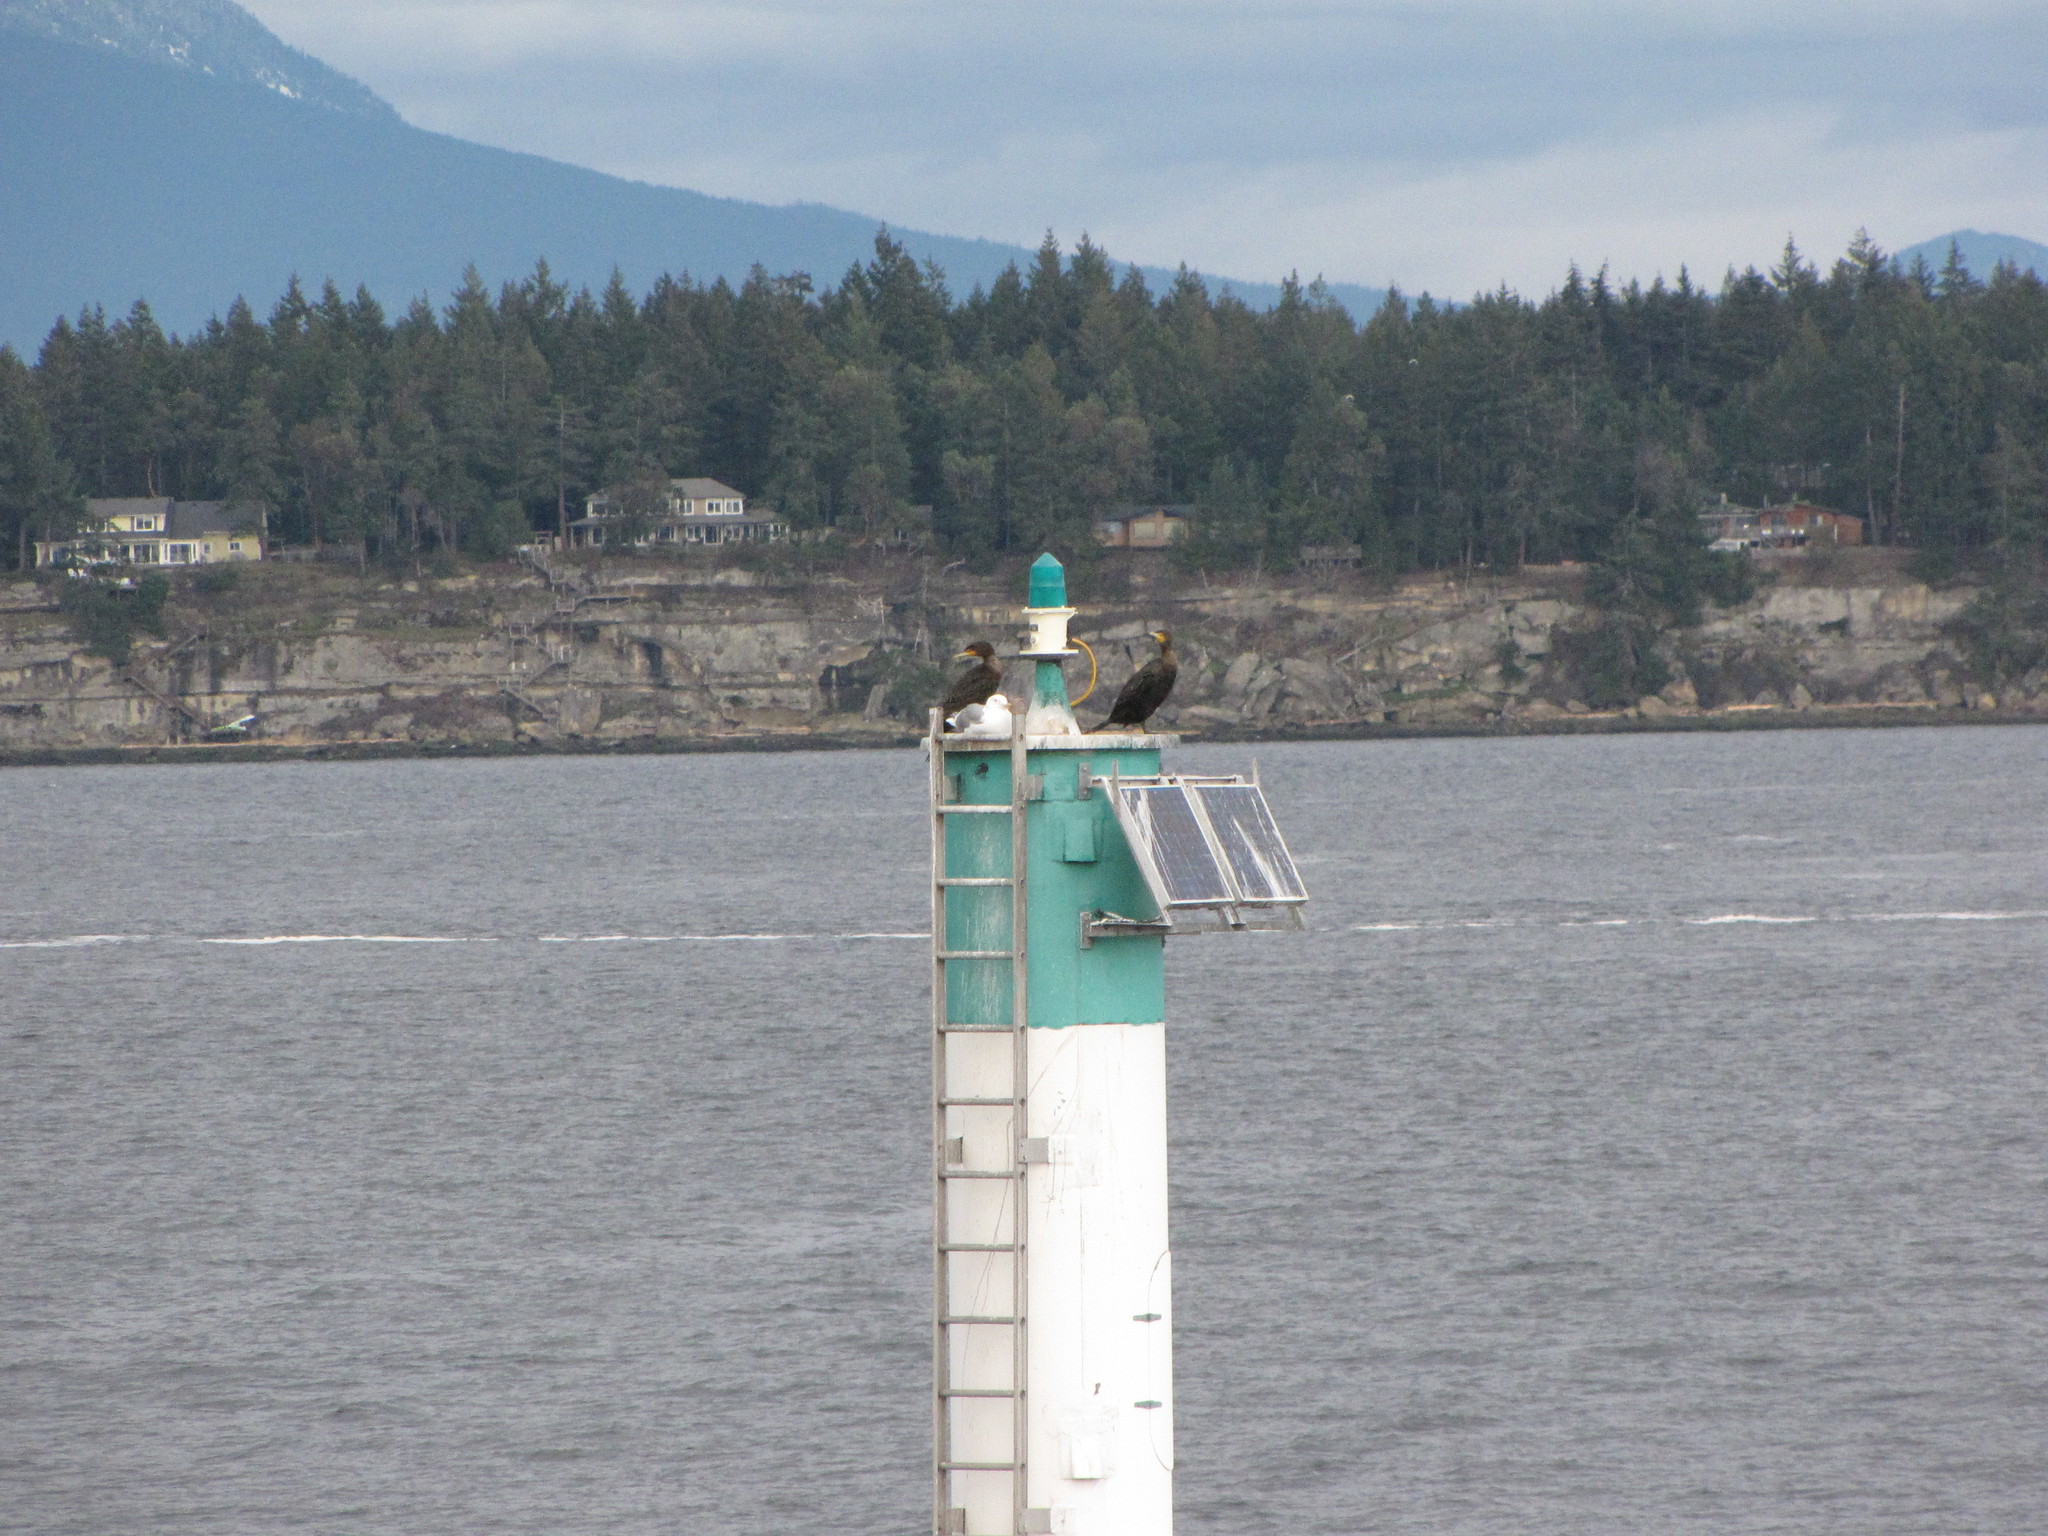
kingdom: Animalia
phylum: Chordata
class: Aves
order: Suliformes
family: Phalacrocoracidae
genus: Phalacrocorax
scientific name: Phalacrocorax auritus
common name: Double-crested cormorant
